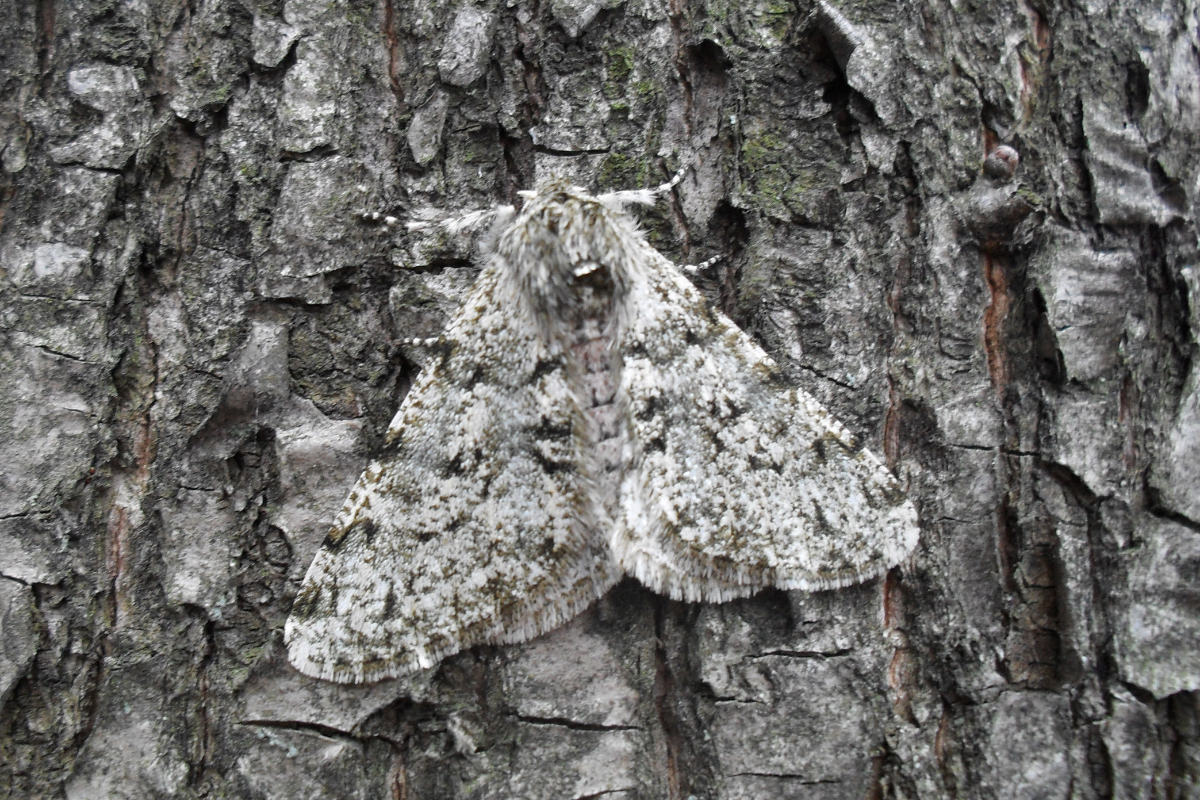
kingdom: Animalia
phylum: Arthropoda
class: Insecta
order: Lepidoptera
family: Geometridae
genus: Phigalia
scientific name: Phigalia pilosaria
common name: Pale brindled beauty
